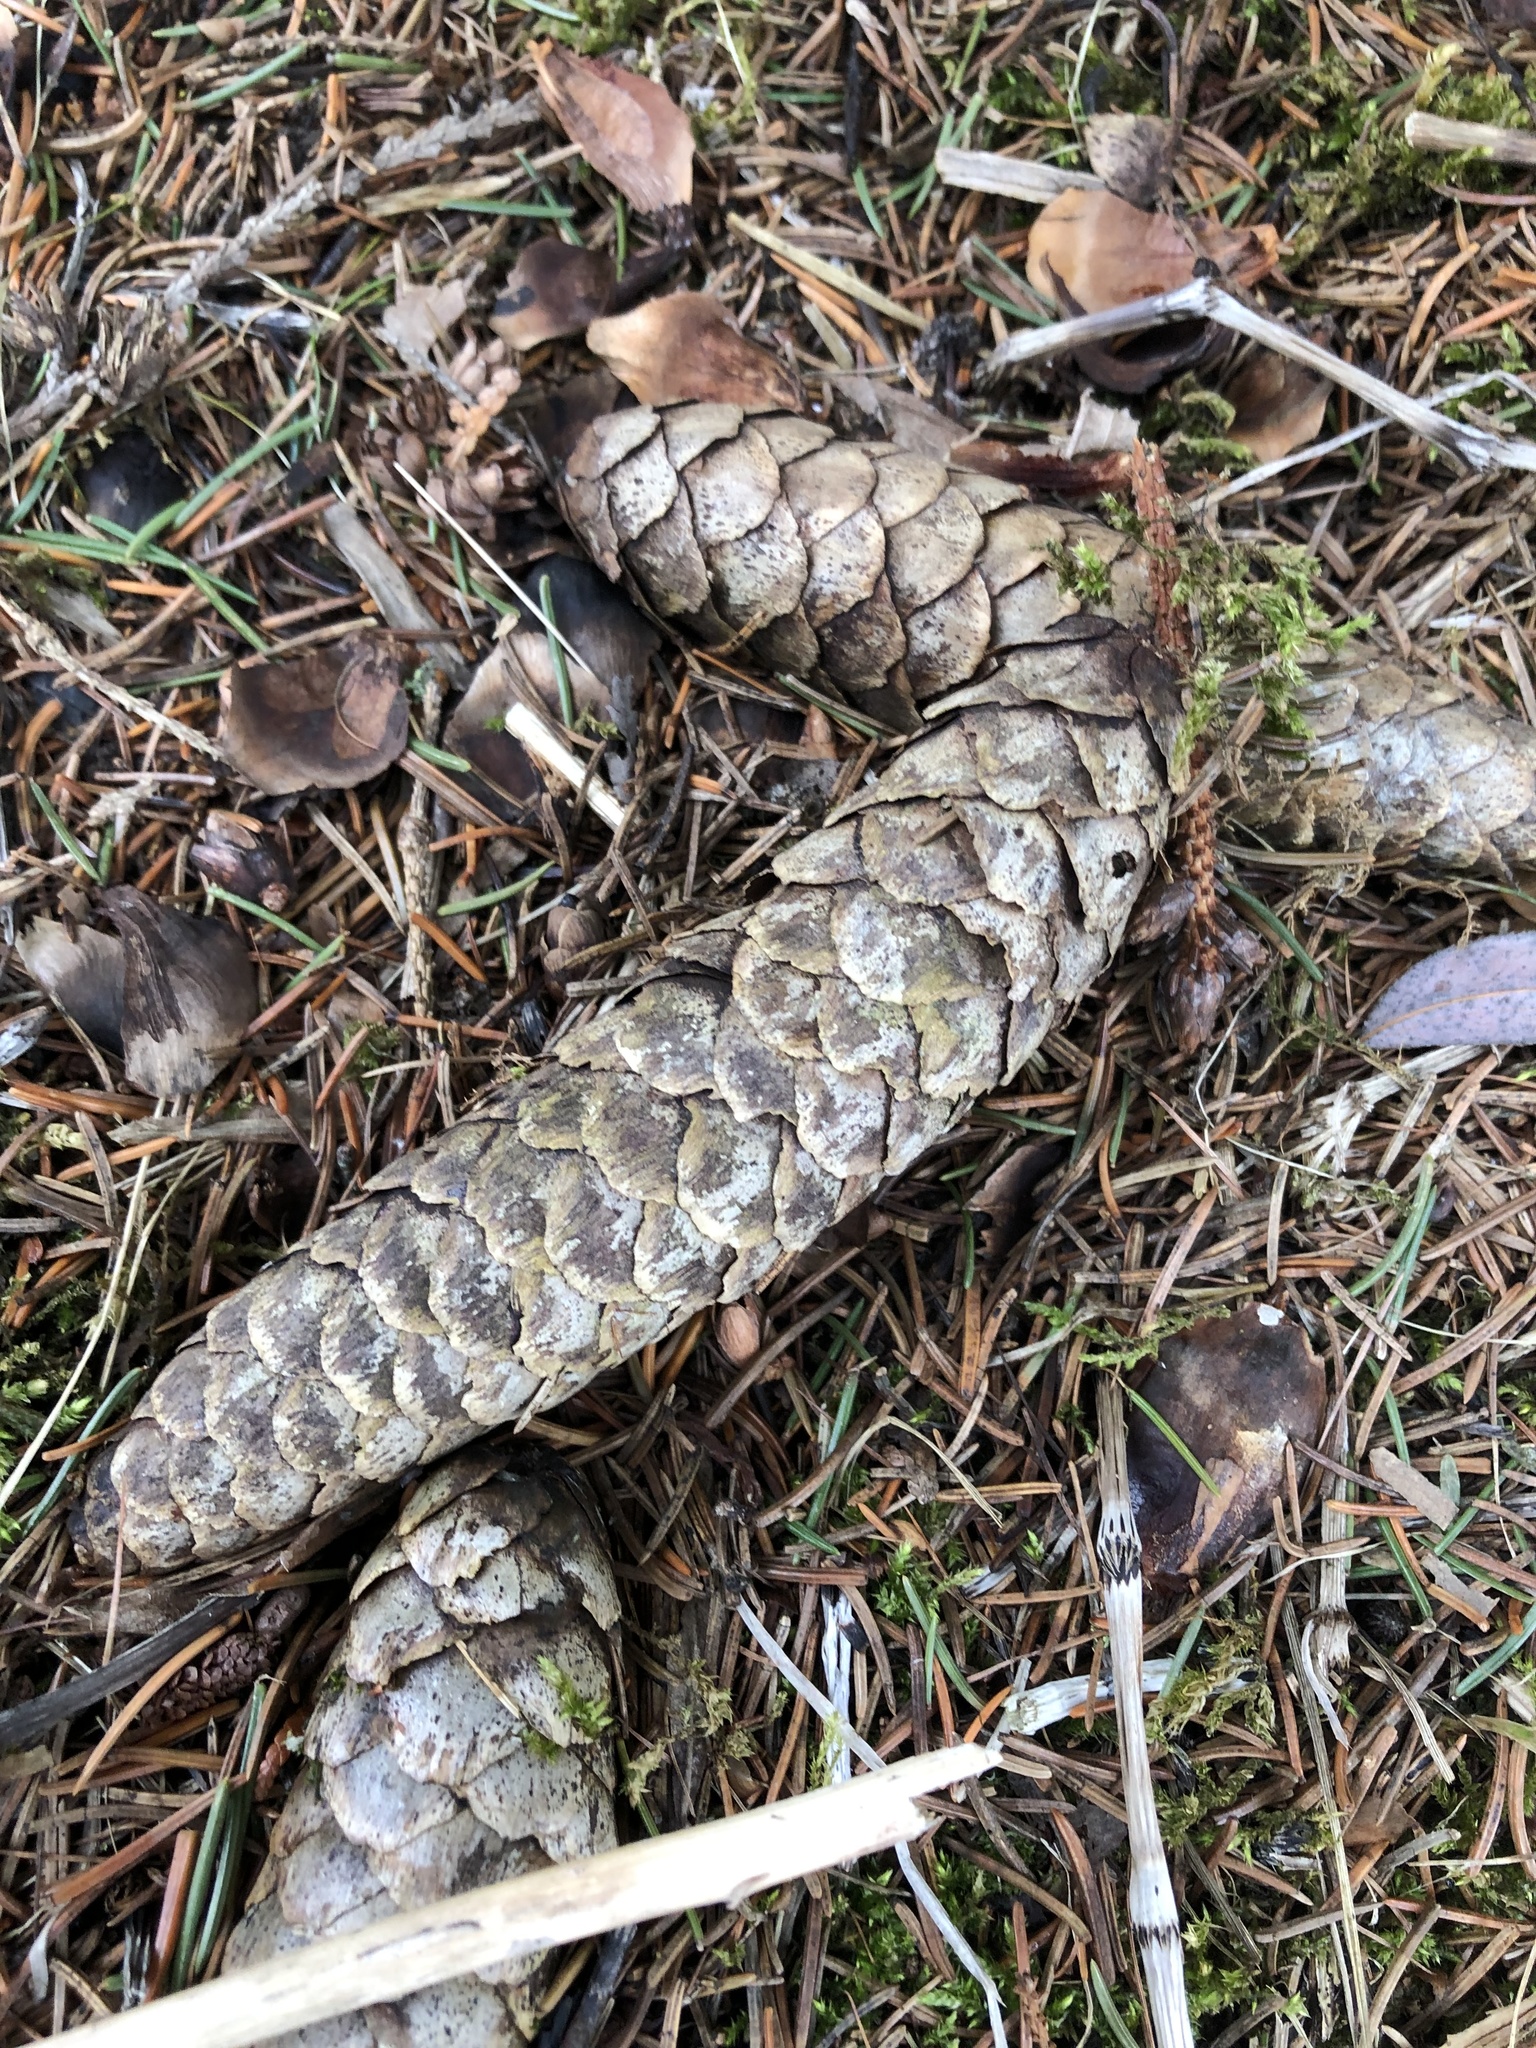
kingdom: Plantae
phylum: Tracheophyta
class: Pinopsida
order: Pinales
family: Pinaceae
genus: Picea
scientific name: Picea abies
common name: Norway spruce
